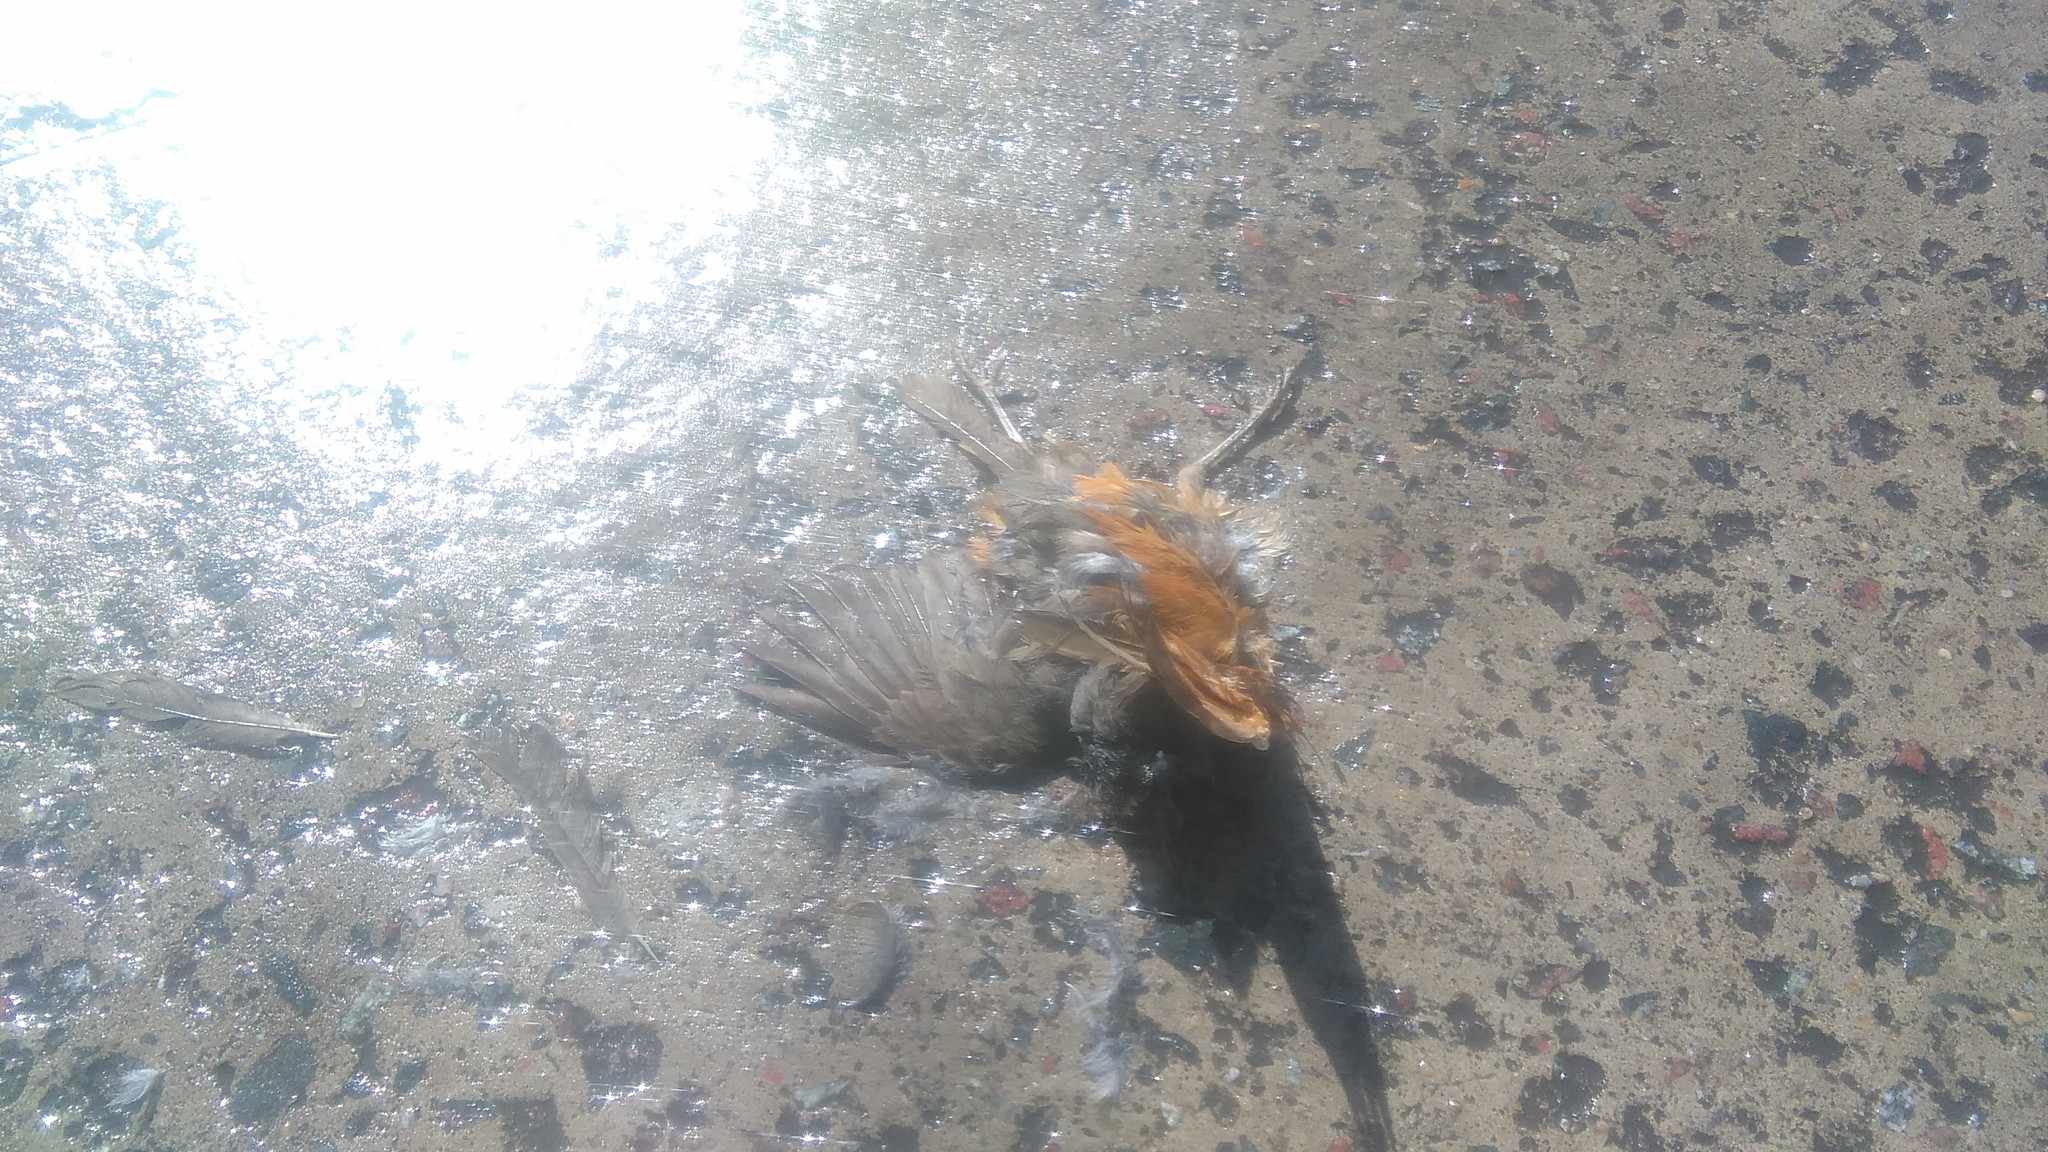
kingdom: Animalia
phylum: Chordata
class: Aves
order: Passeriformes
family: Turdidae
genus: Turdus
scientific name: Turdus rufiventris
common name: Rufous-bellied thrush
